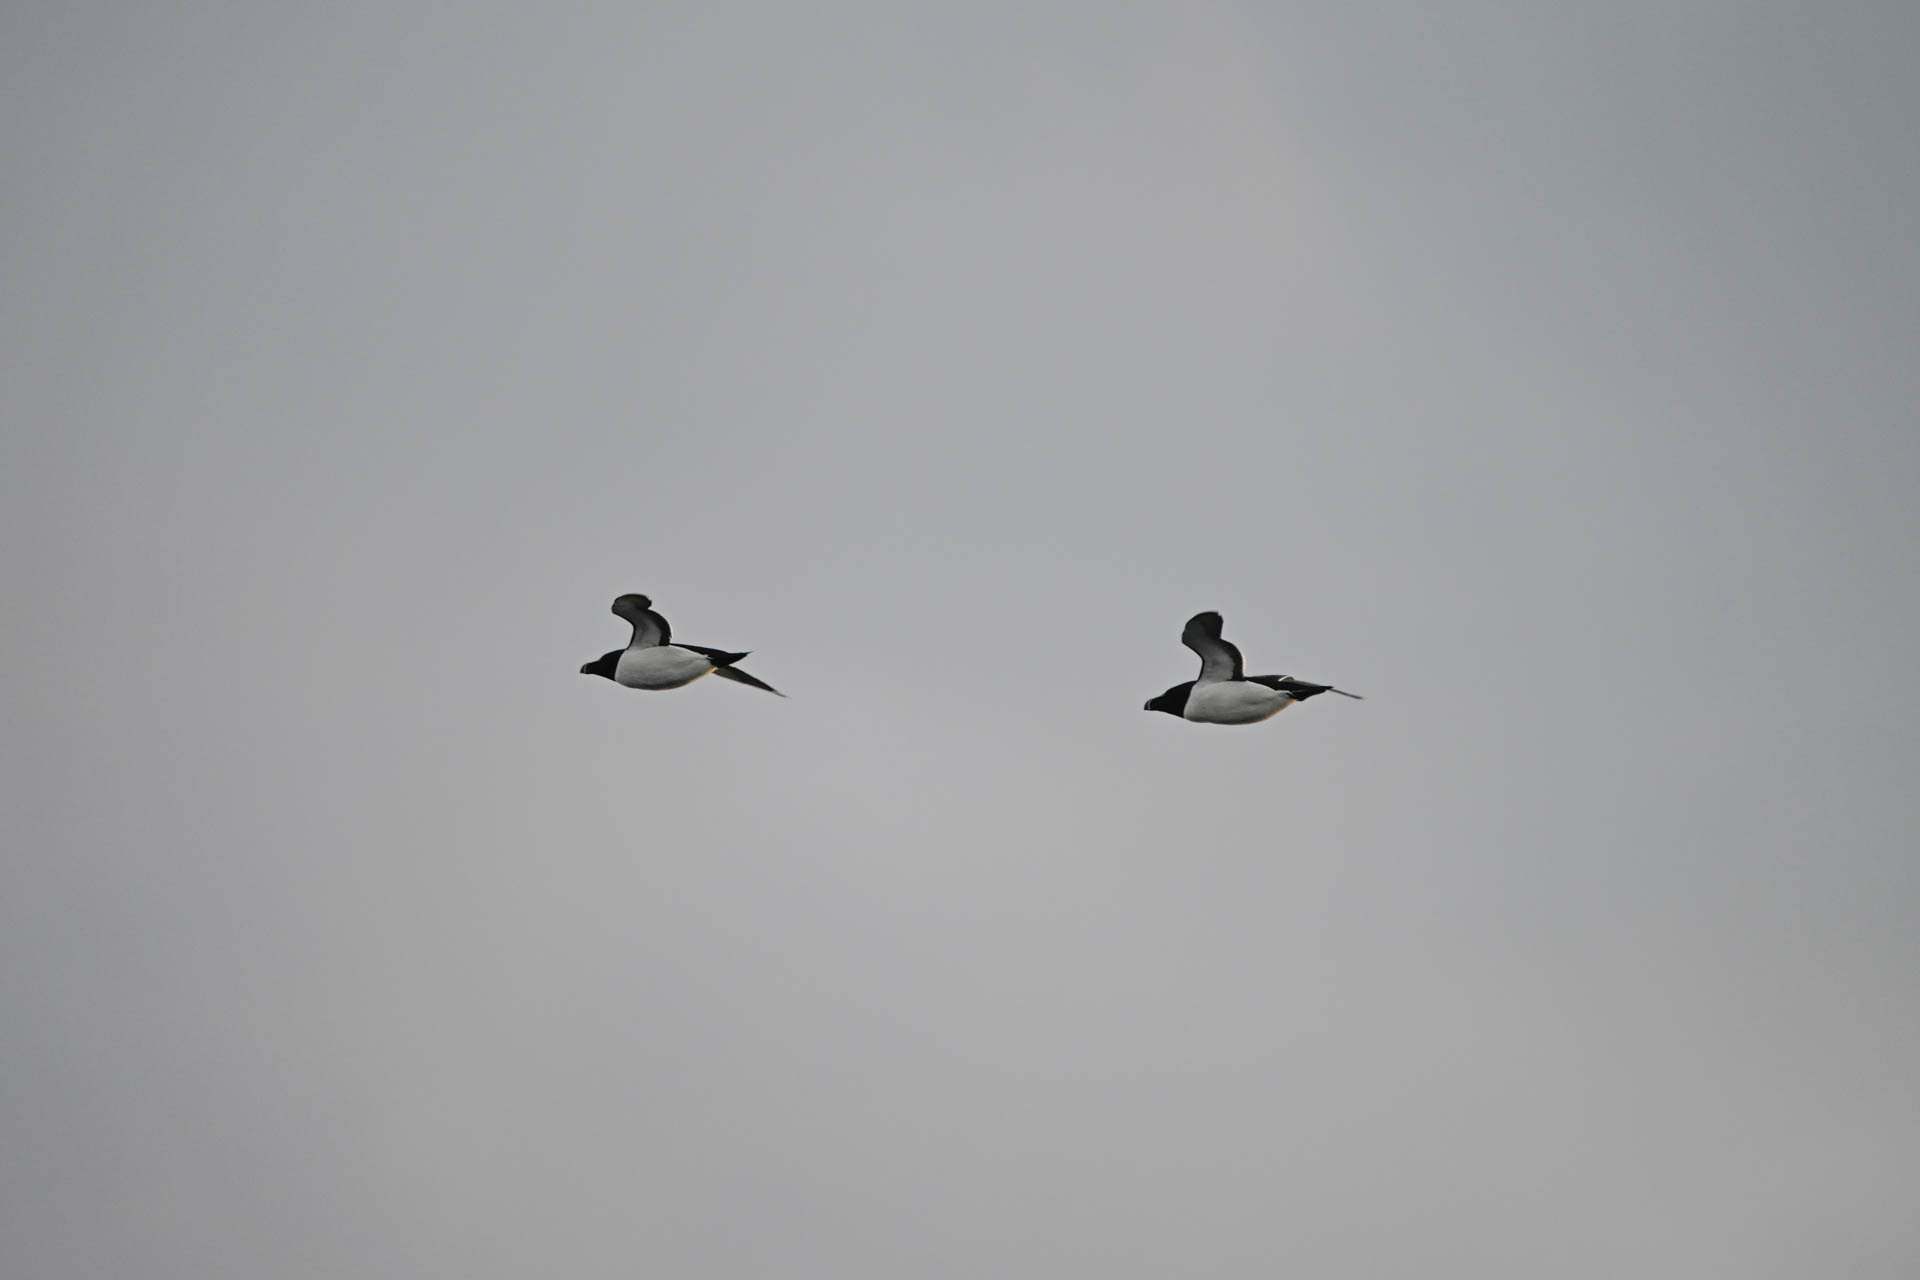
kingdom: Animalia
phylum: Chordata
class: Aves
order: Charadriiformes
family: Alcidae
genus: Alca
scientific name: Alca torda
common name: Razorbill
